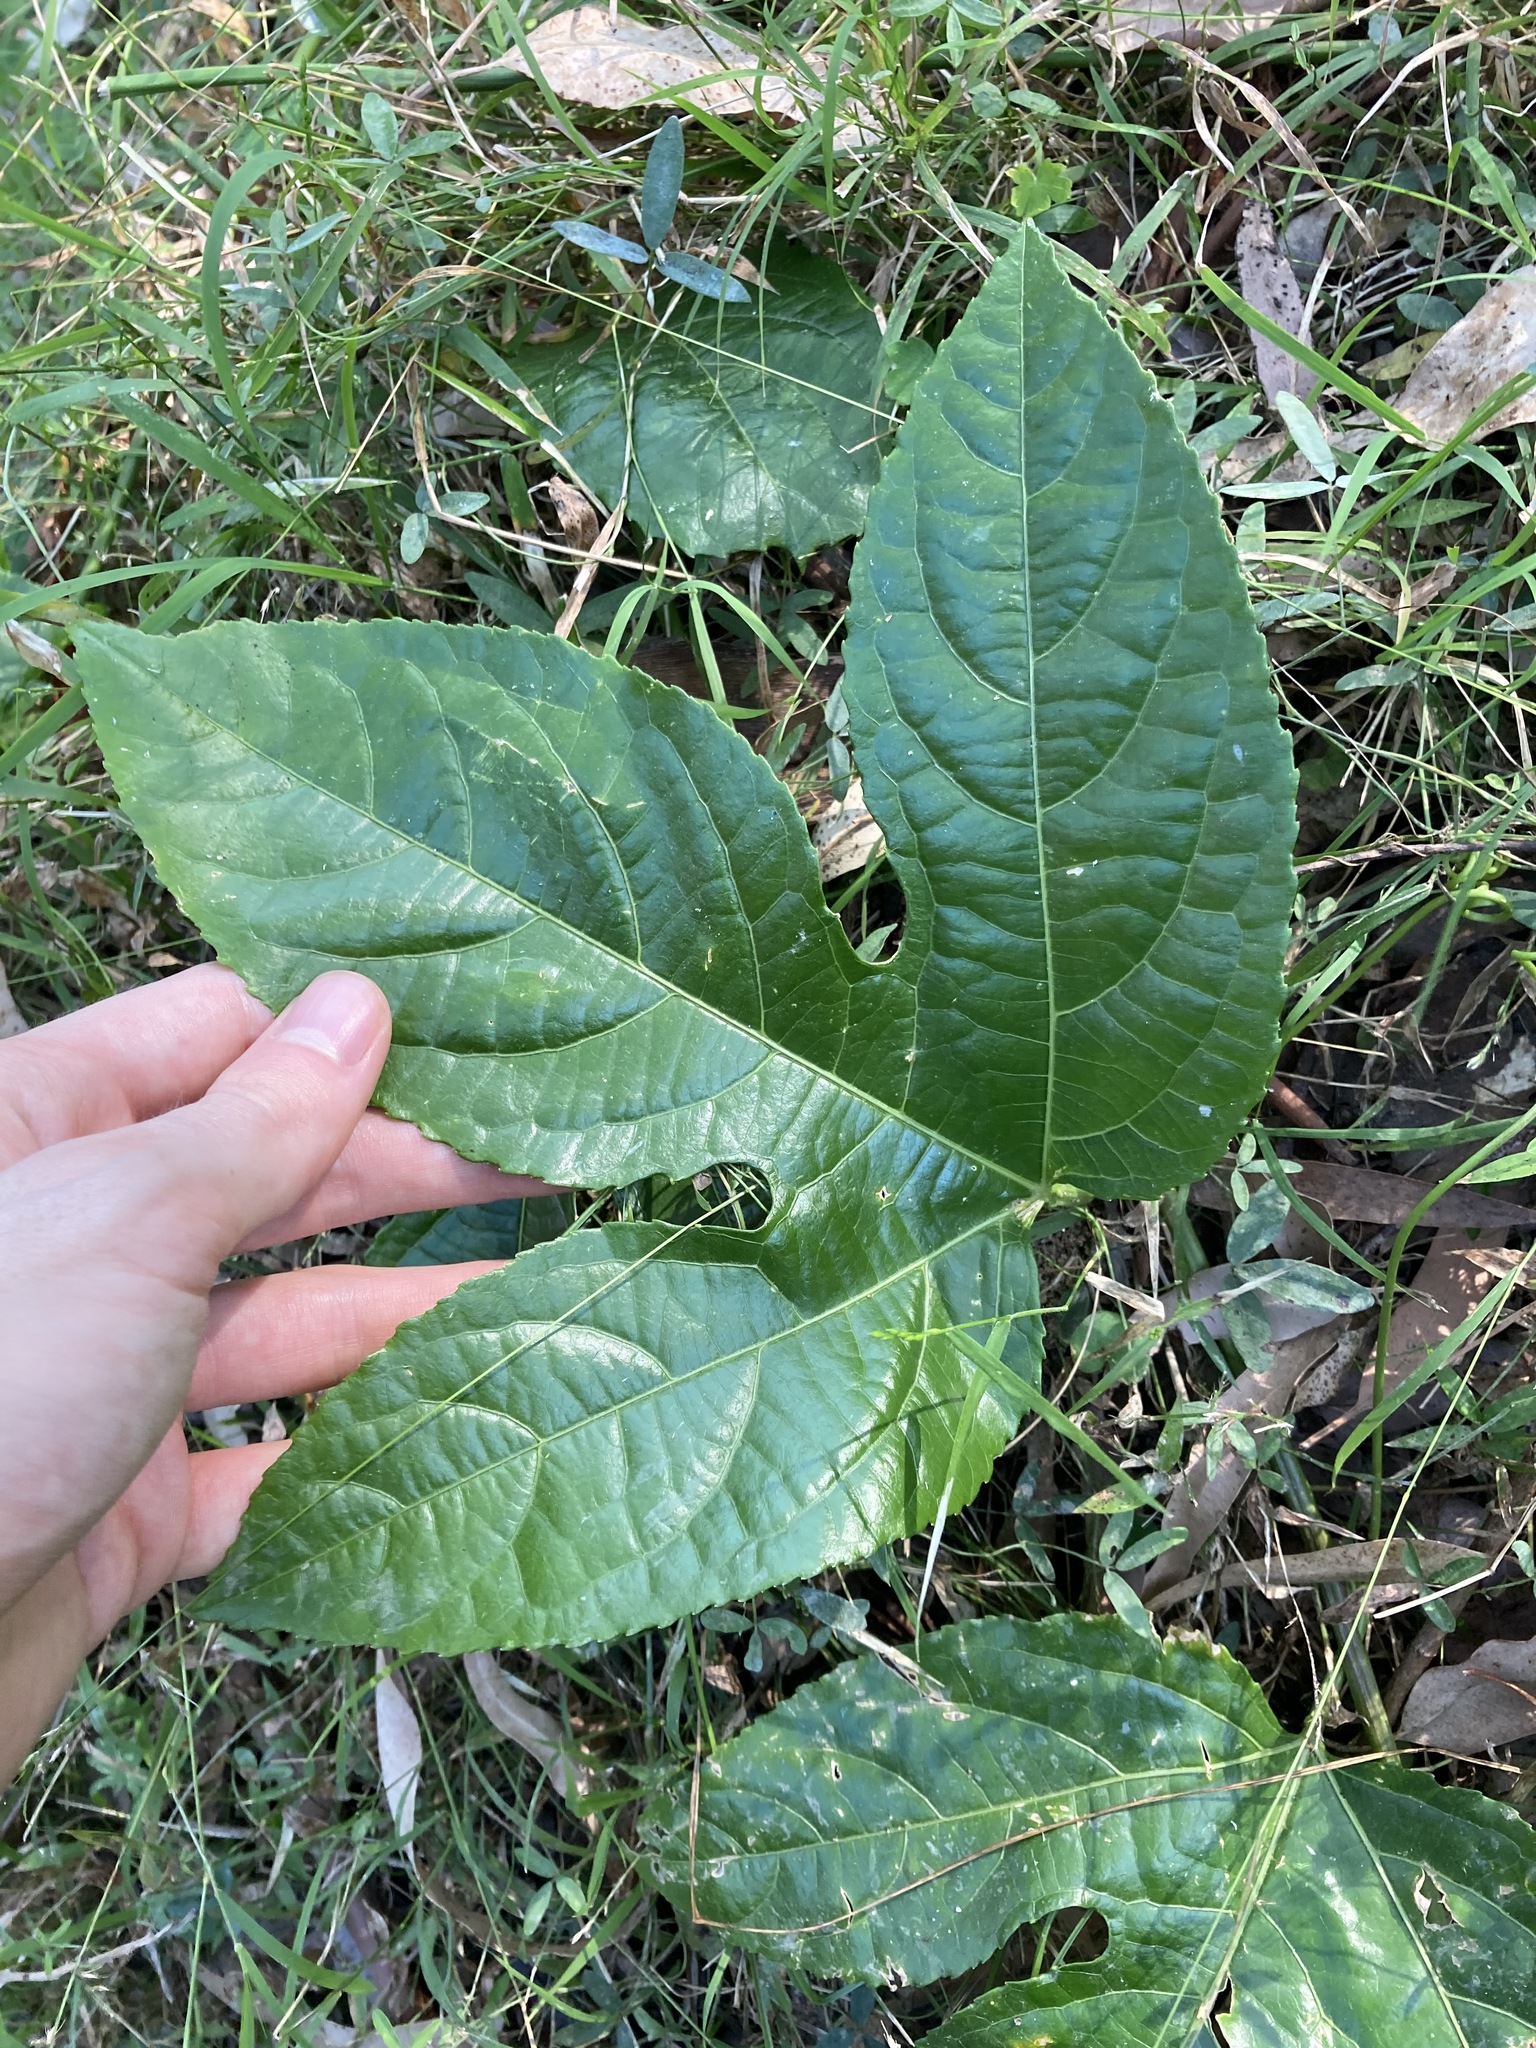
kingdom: Plantae
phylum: Tracheophyta
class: Magnoliopsida
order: Malpighiales
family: Passifloraceae
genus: Passiflora
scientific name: Passiflora edulis
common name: Purple granadilla
